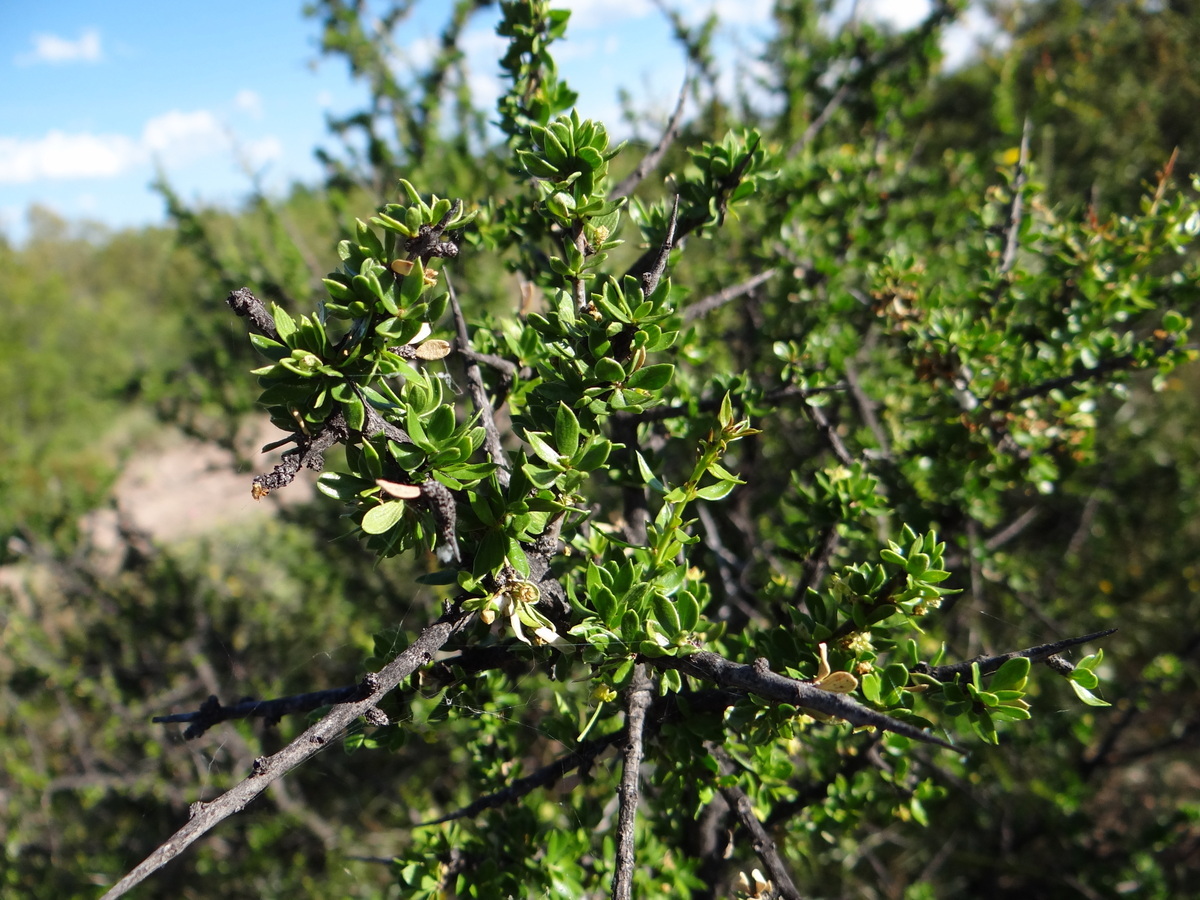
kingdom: Plantae
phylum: Tracheophyta
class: Magnoliopsida
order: Rosales
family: Rhamnaceae
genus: Condalia
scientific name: Condalia microphylla
